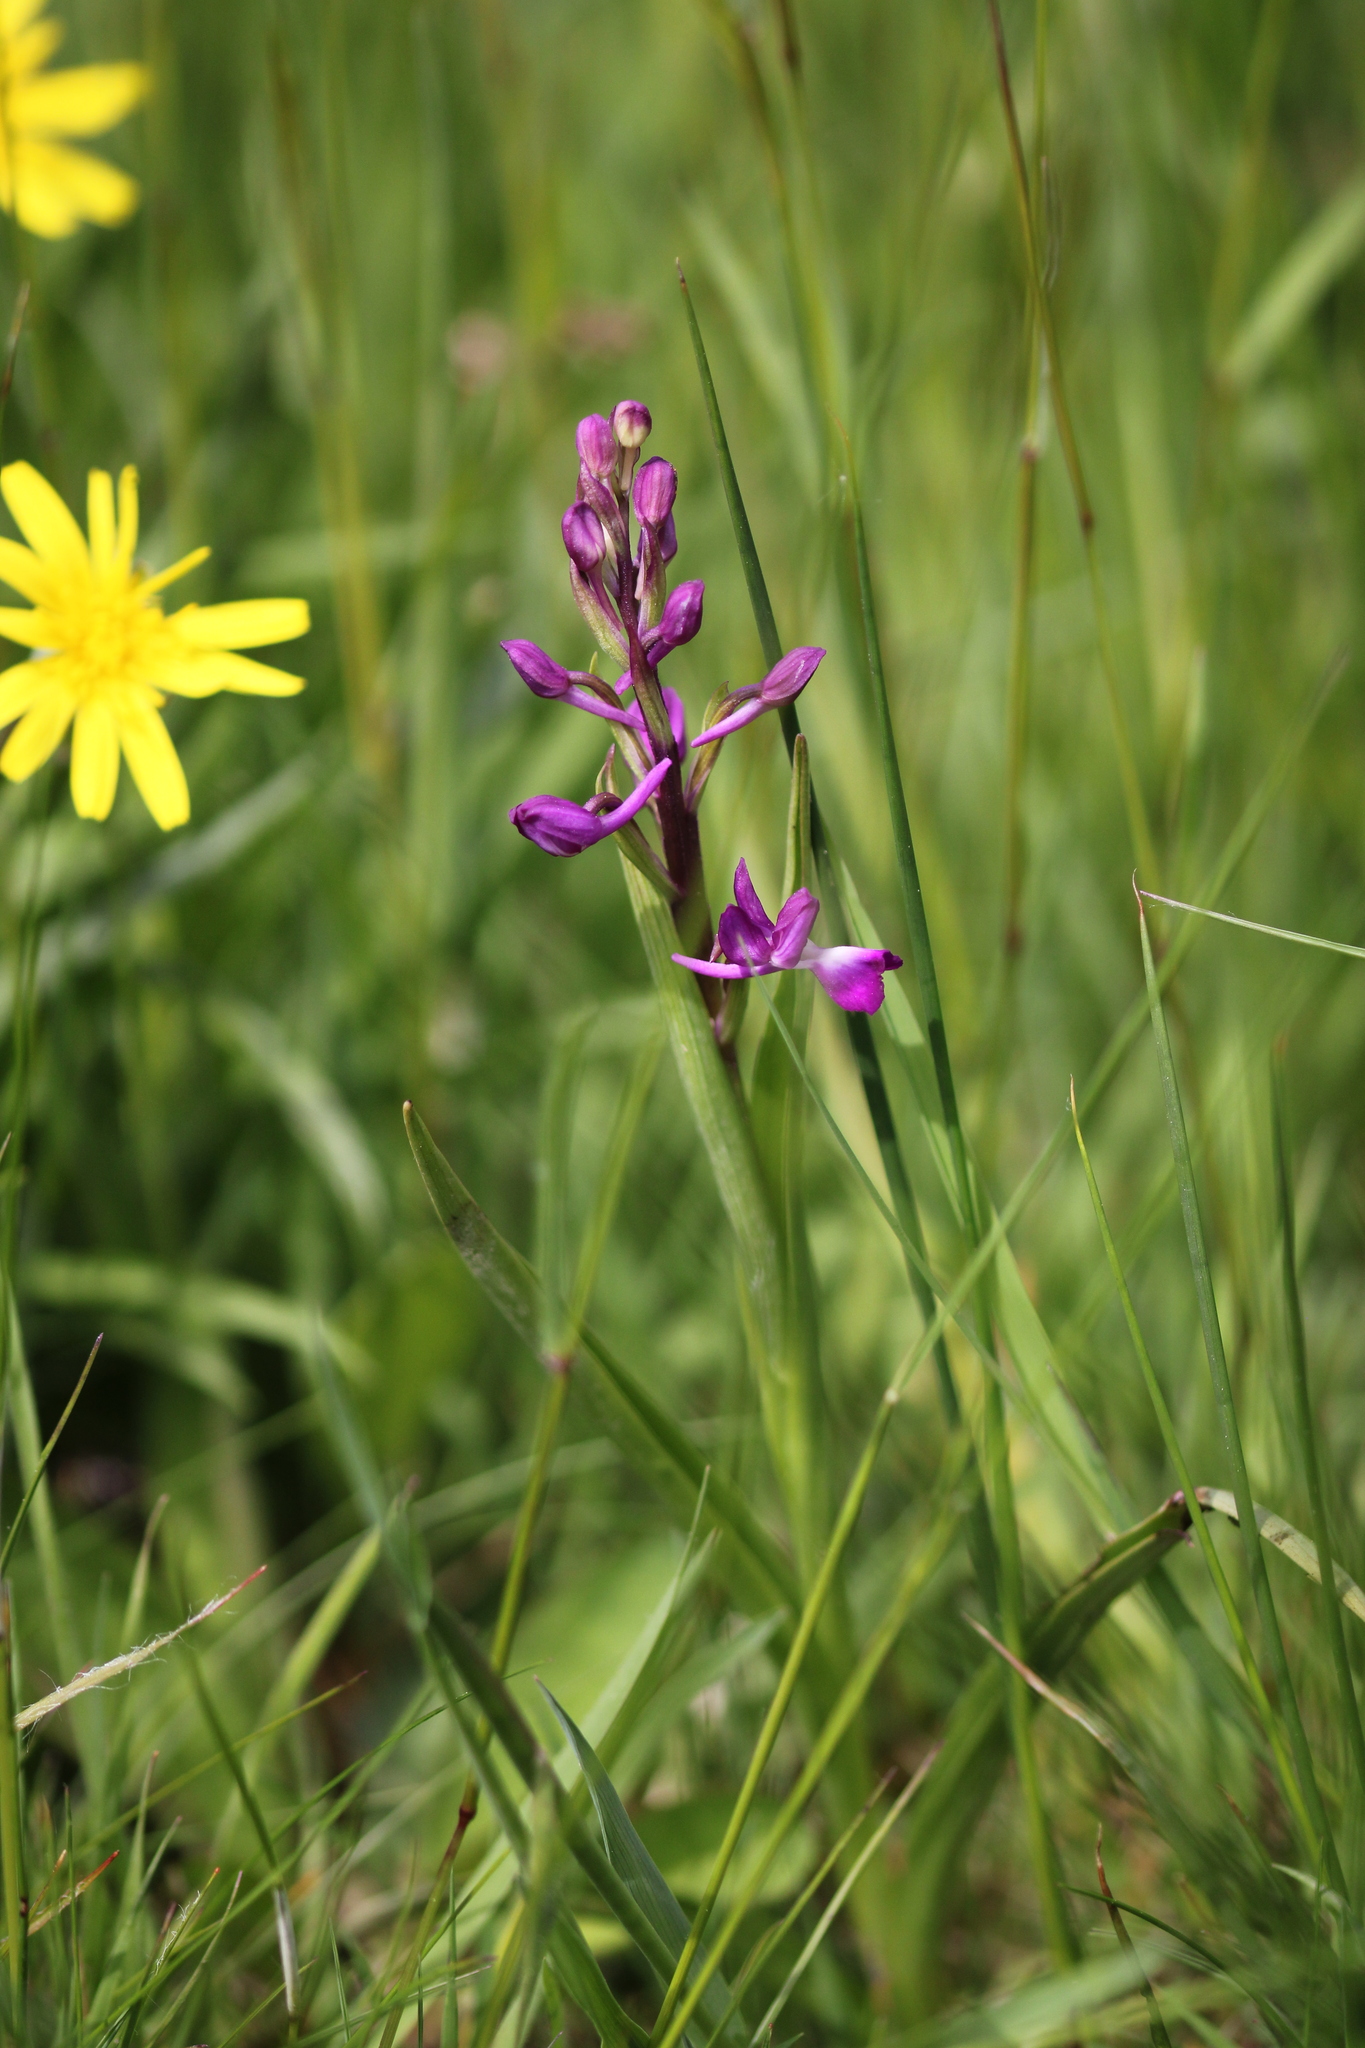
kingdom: Plantae
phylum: Tracheophyta
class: Liliopsida
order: Asparagales
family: Orchidaceae
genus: Anacamptis
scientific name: Anacamptis laxiflora
